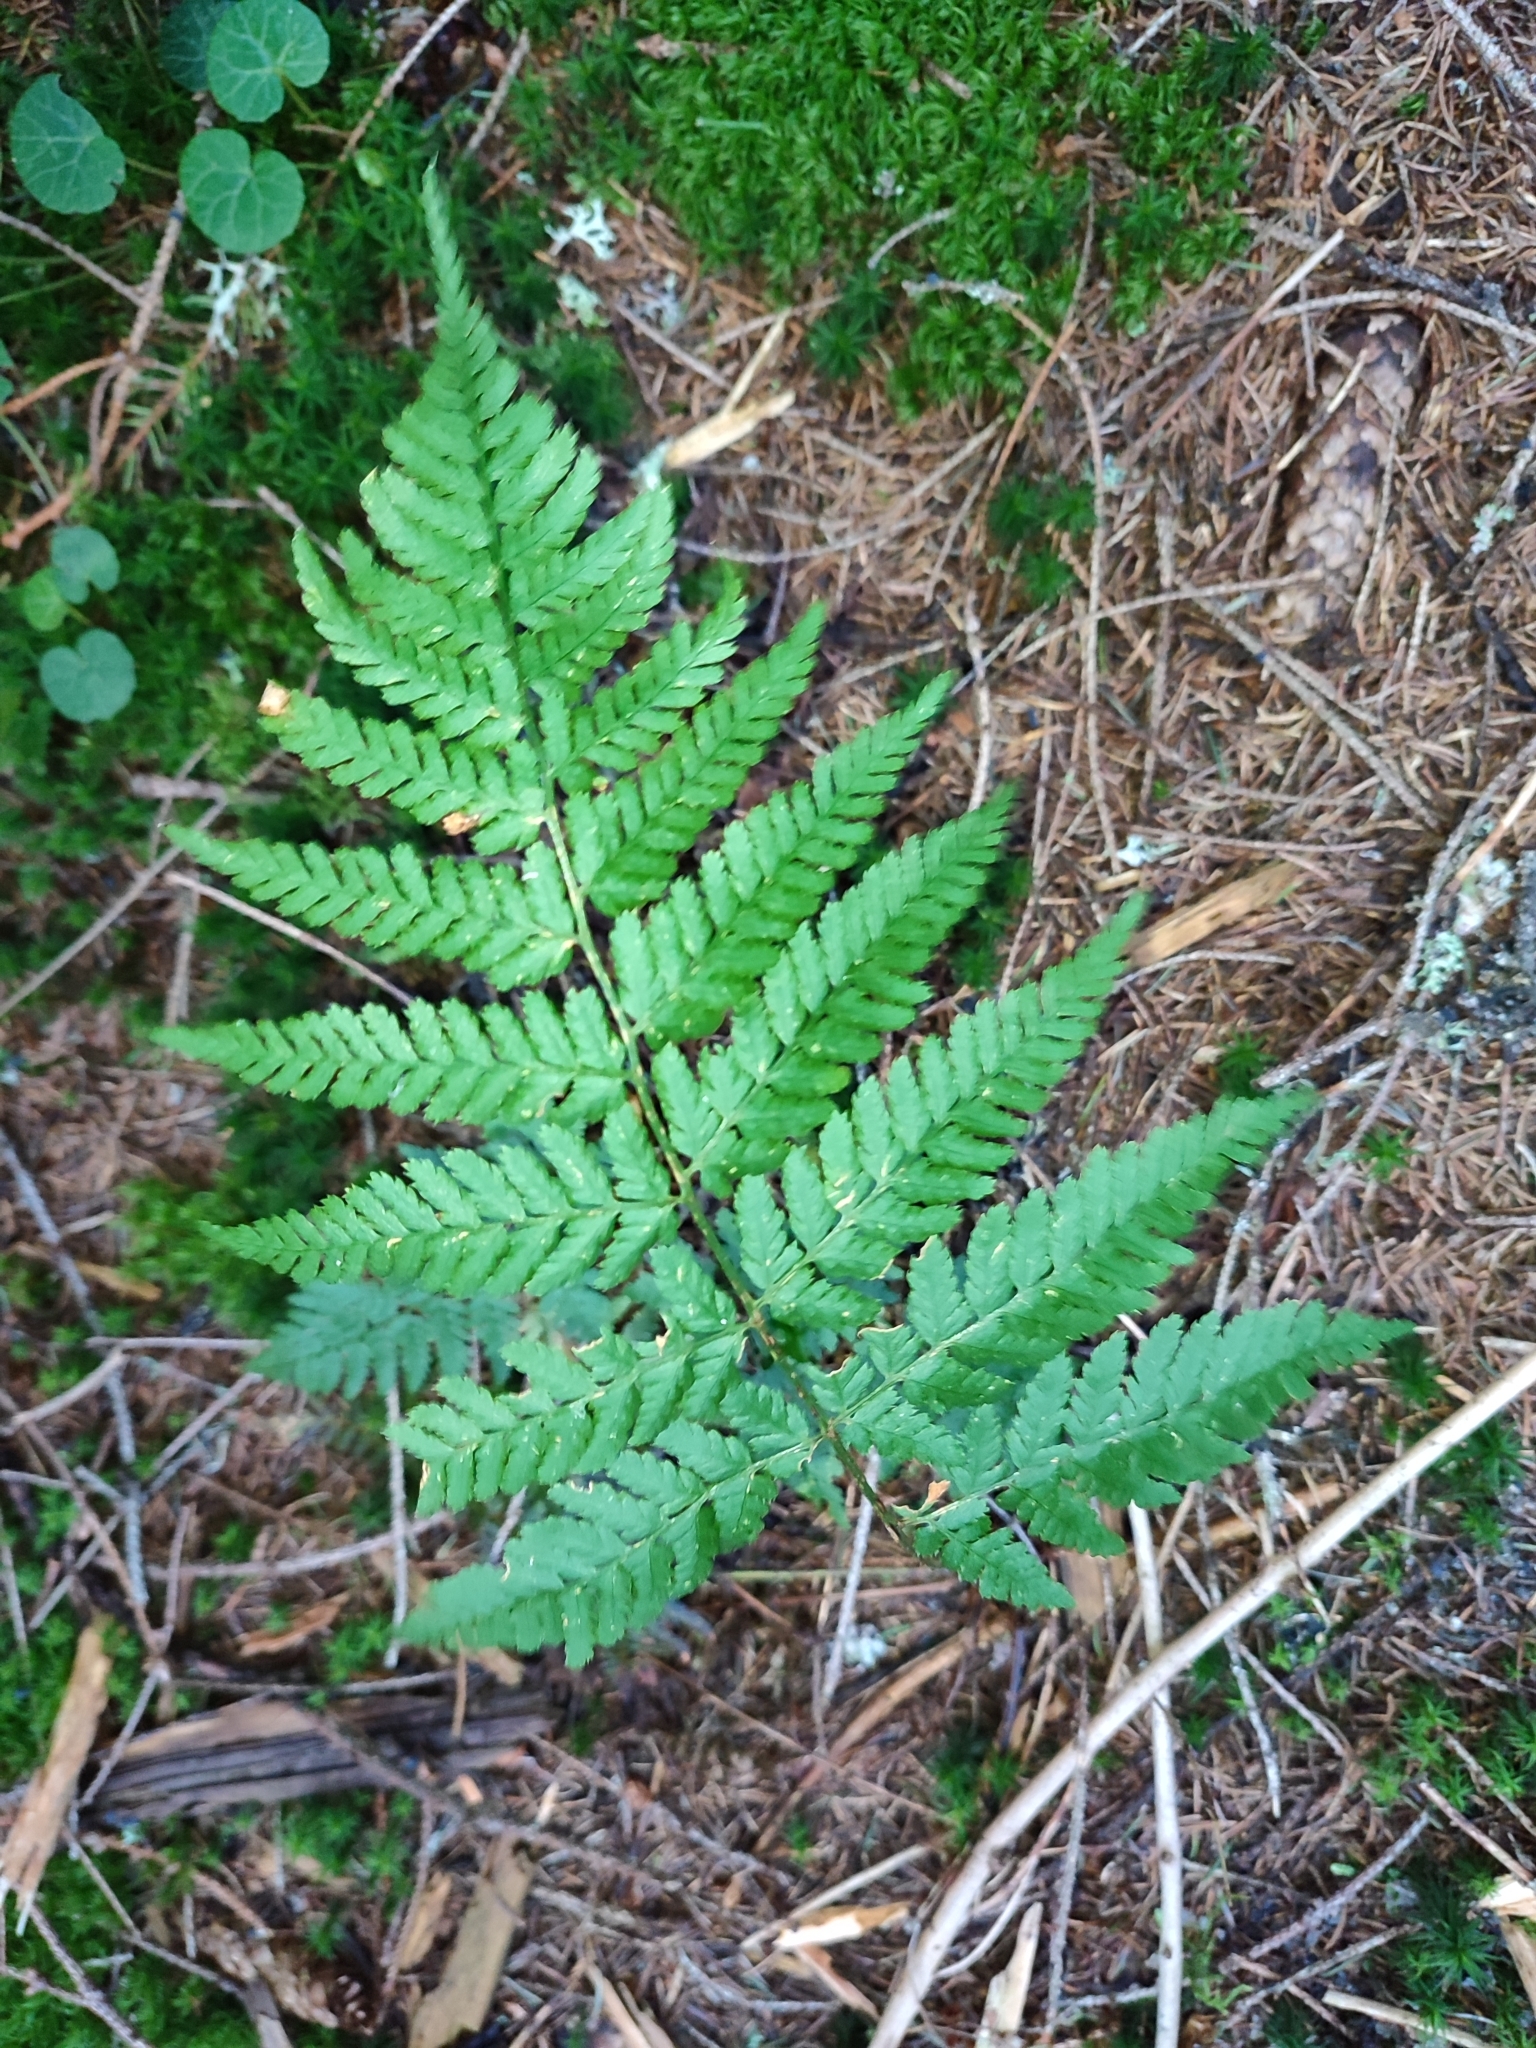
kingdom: Plantae
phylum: Tracheophyta
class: Polypodiopsida
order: Polypodiales
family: Dryopteridaceae
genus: Dryopteris
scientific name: Dryopteris carthusiana
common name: Narrow buckler-fern
